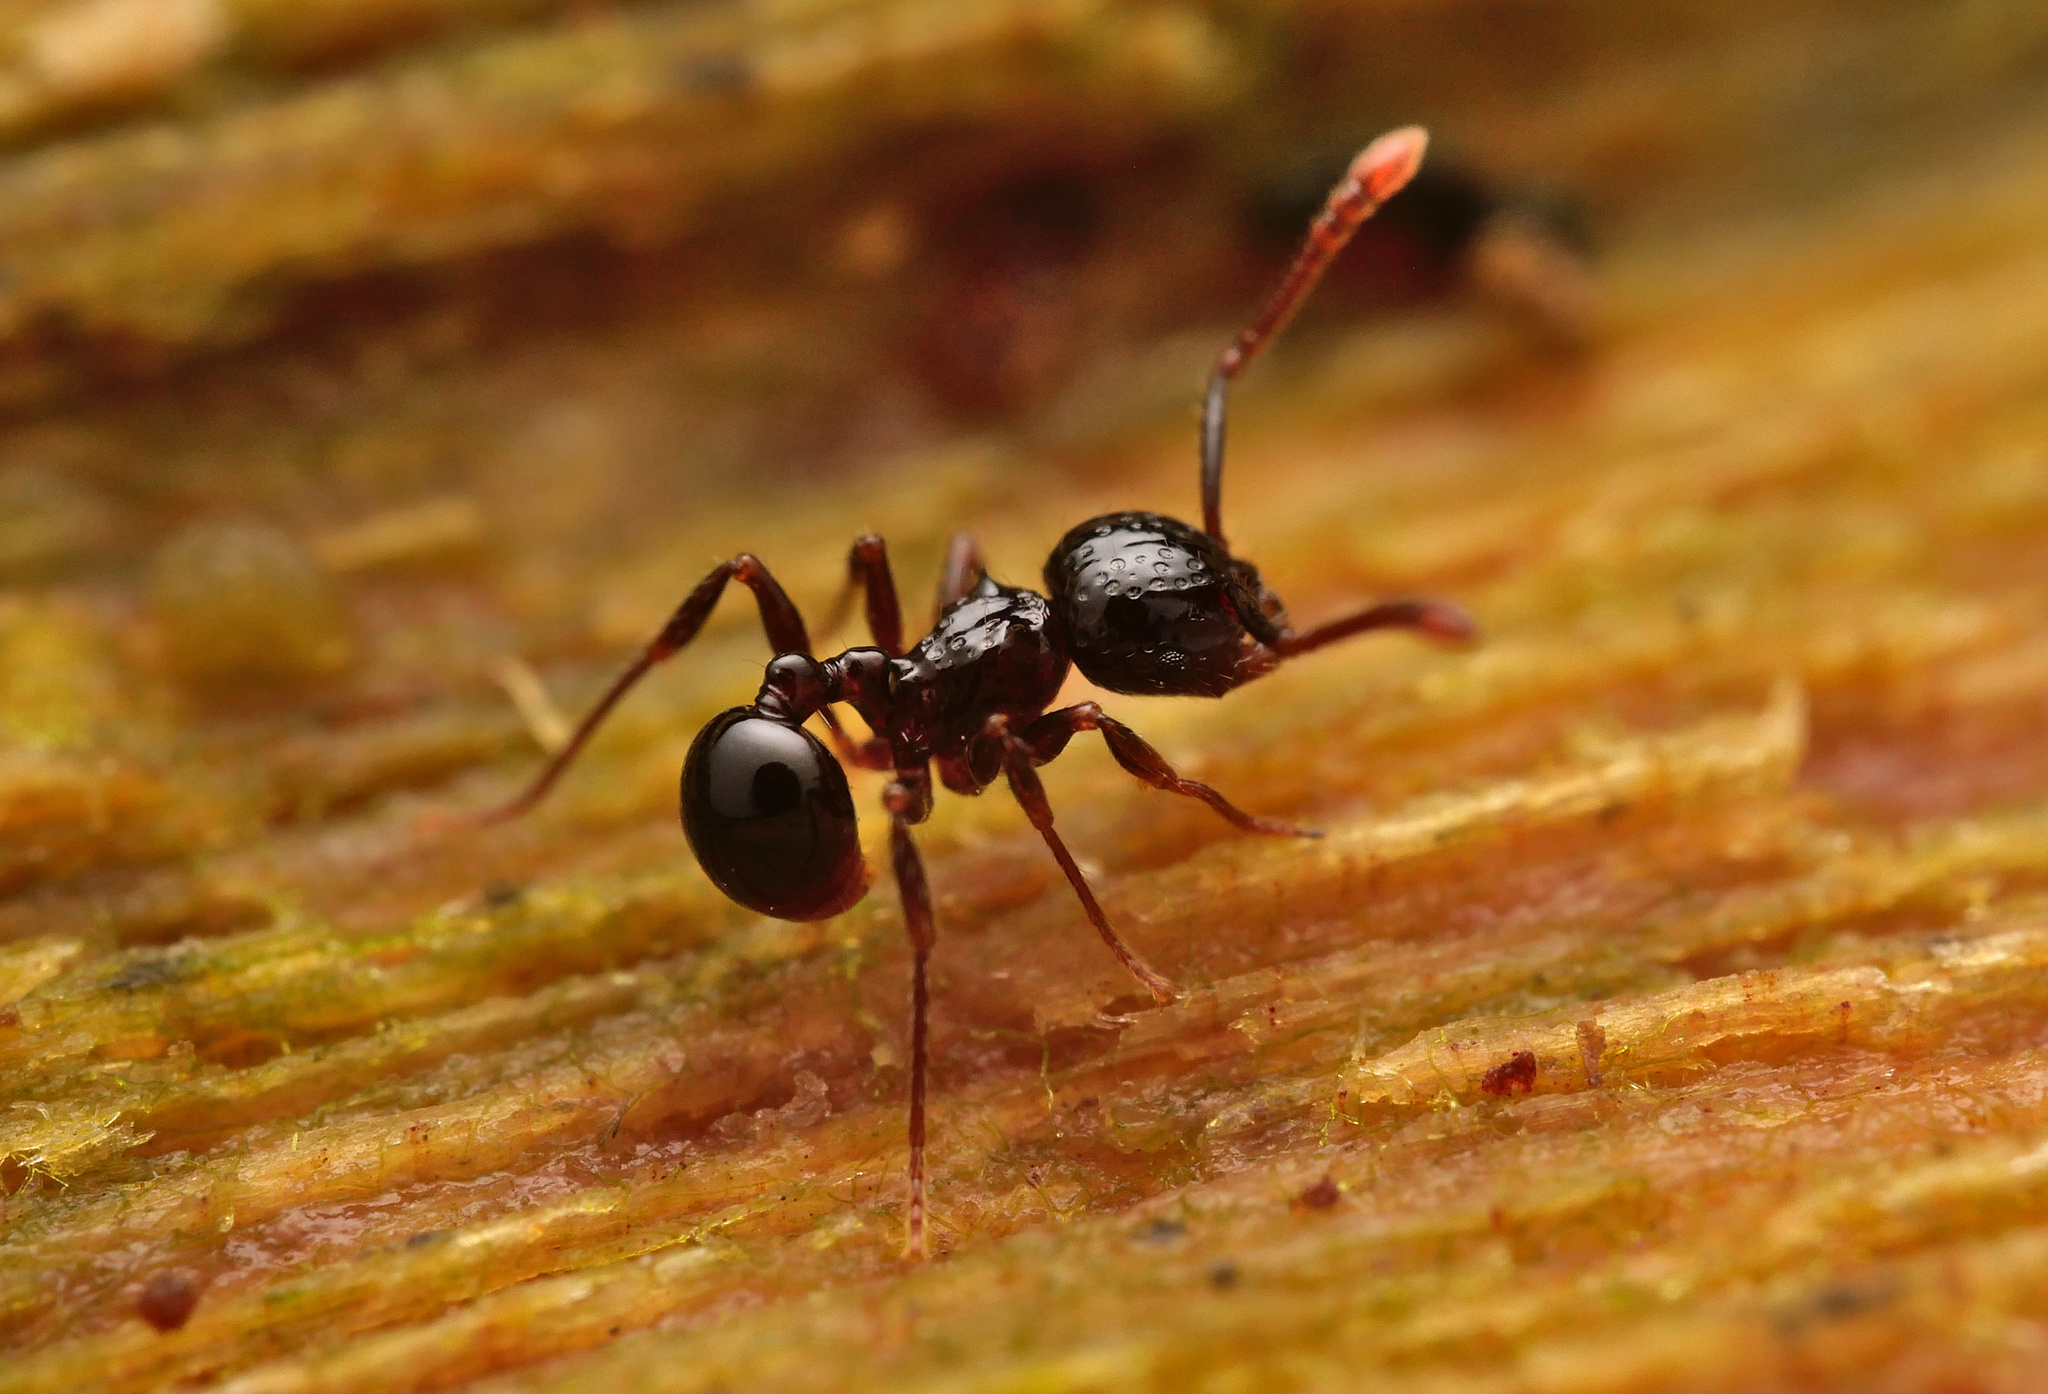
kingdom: Animalia
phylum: Arthropoda
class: Insecta
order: Hymenoptera
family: Formicidae
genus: Pristomyrmex
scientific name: Pristomyrmex quadridens
